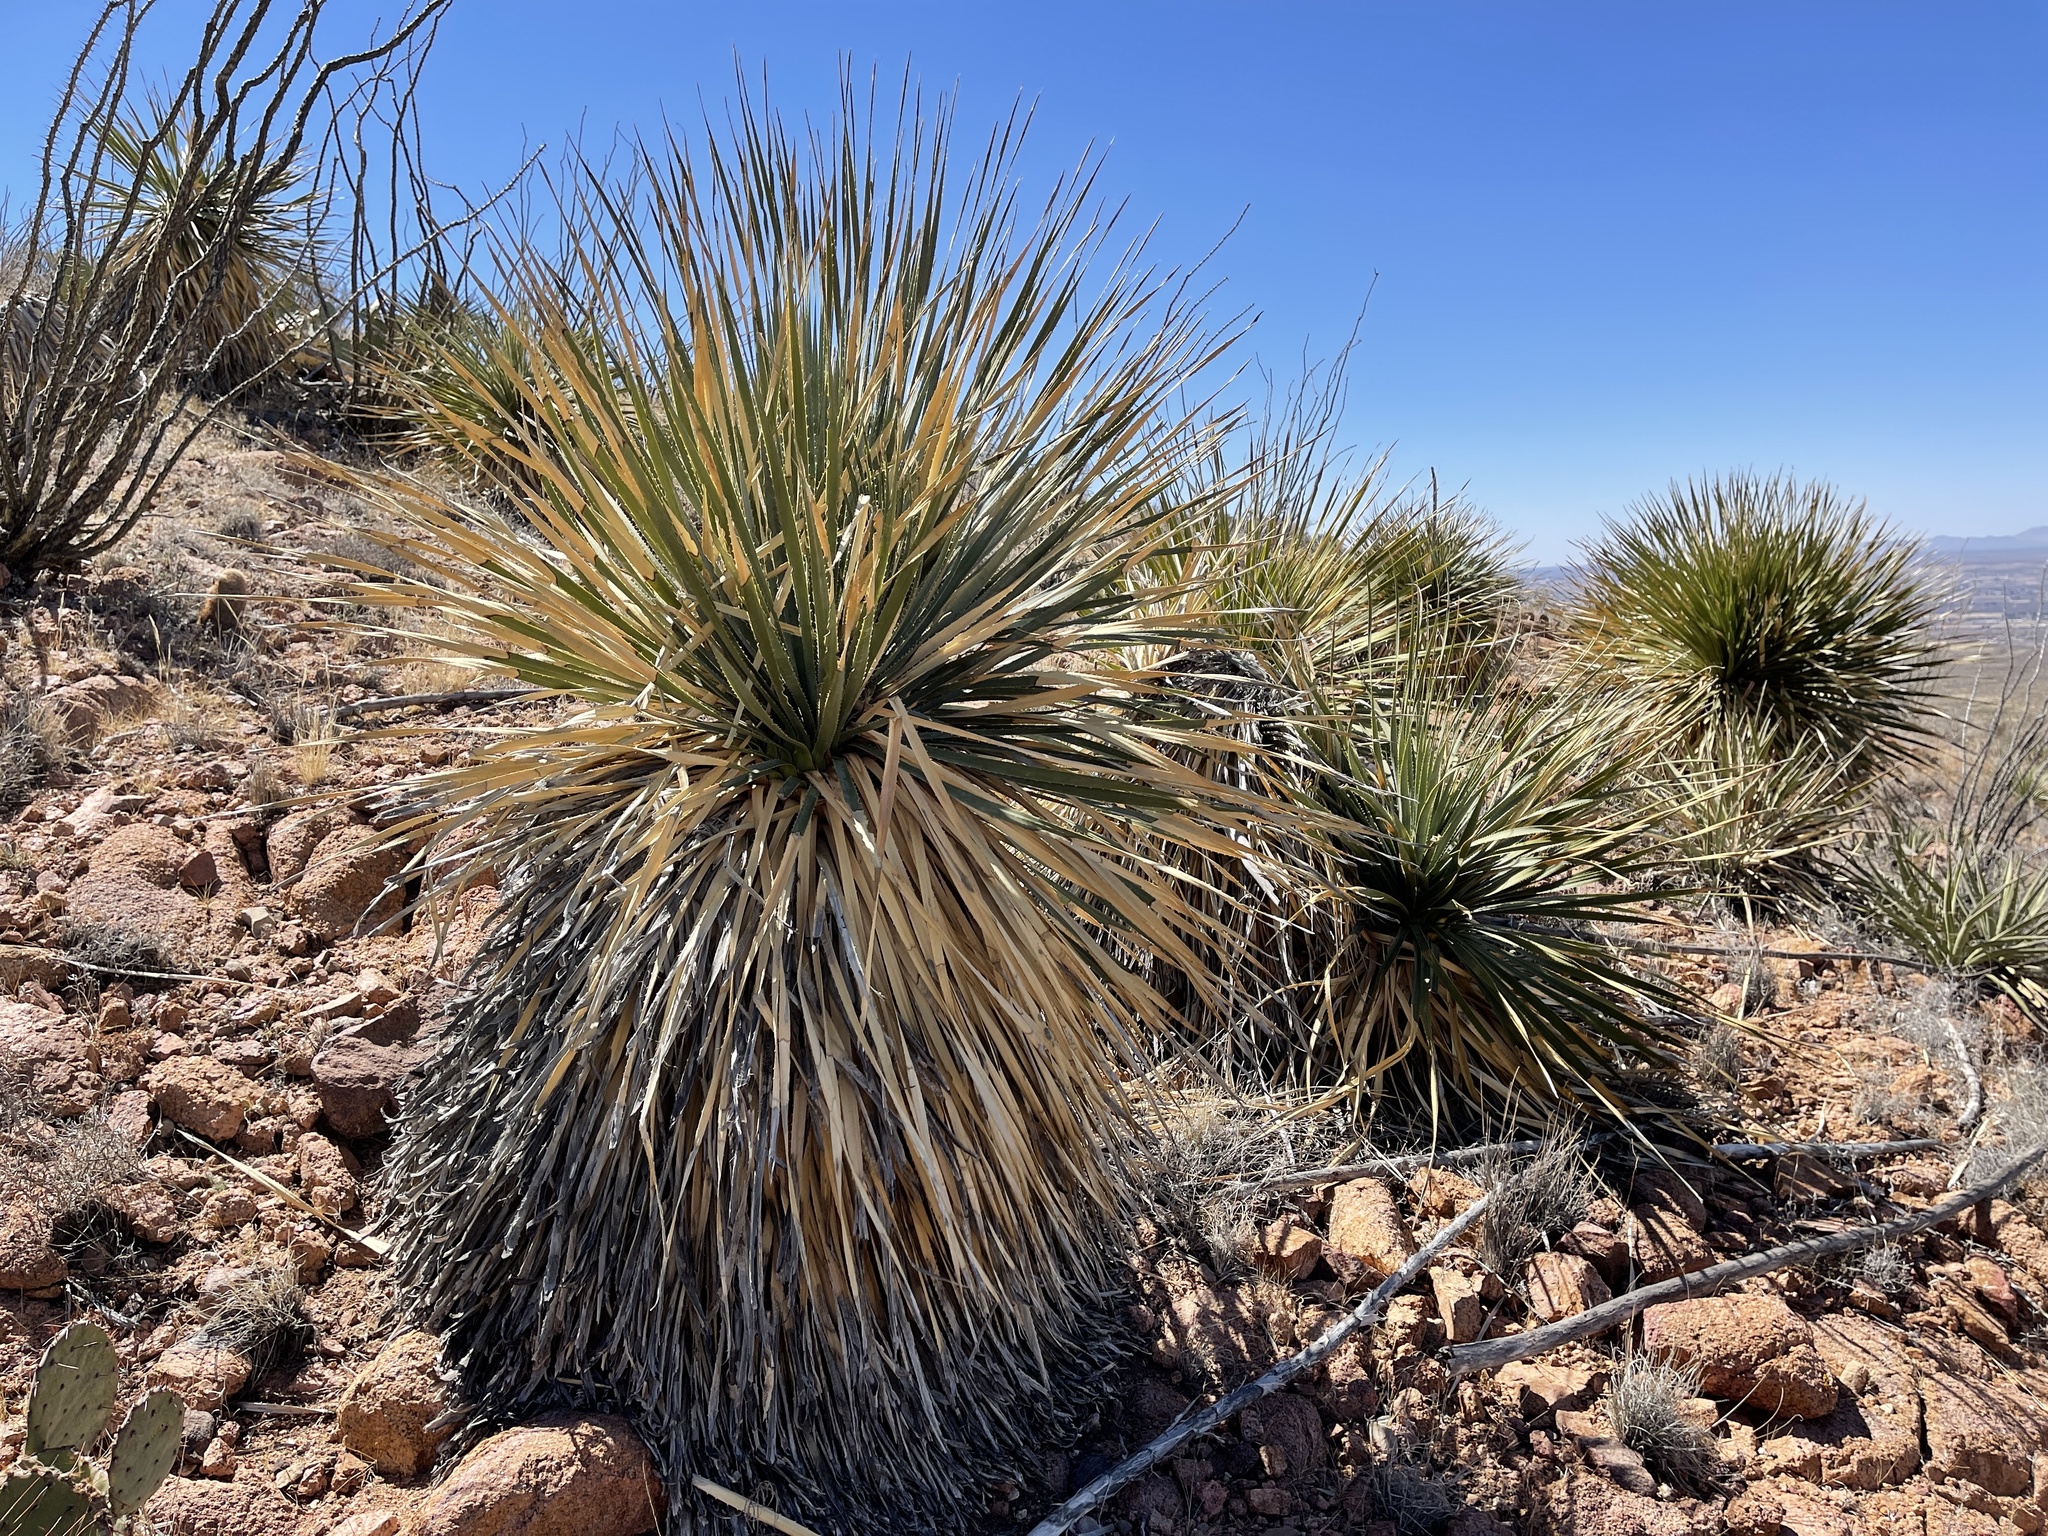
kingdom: Plantae
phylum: Tracheophyta
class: Liliopsida
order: Asparagales
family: Asparagaceae
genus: Dasylirion
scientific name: Dasylirion wheeleri
